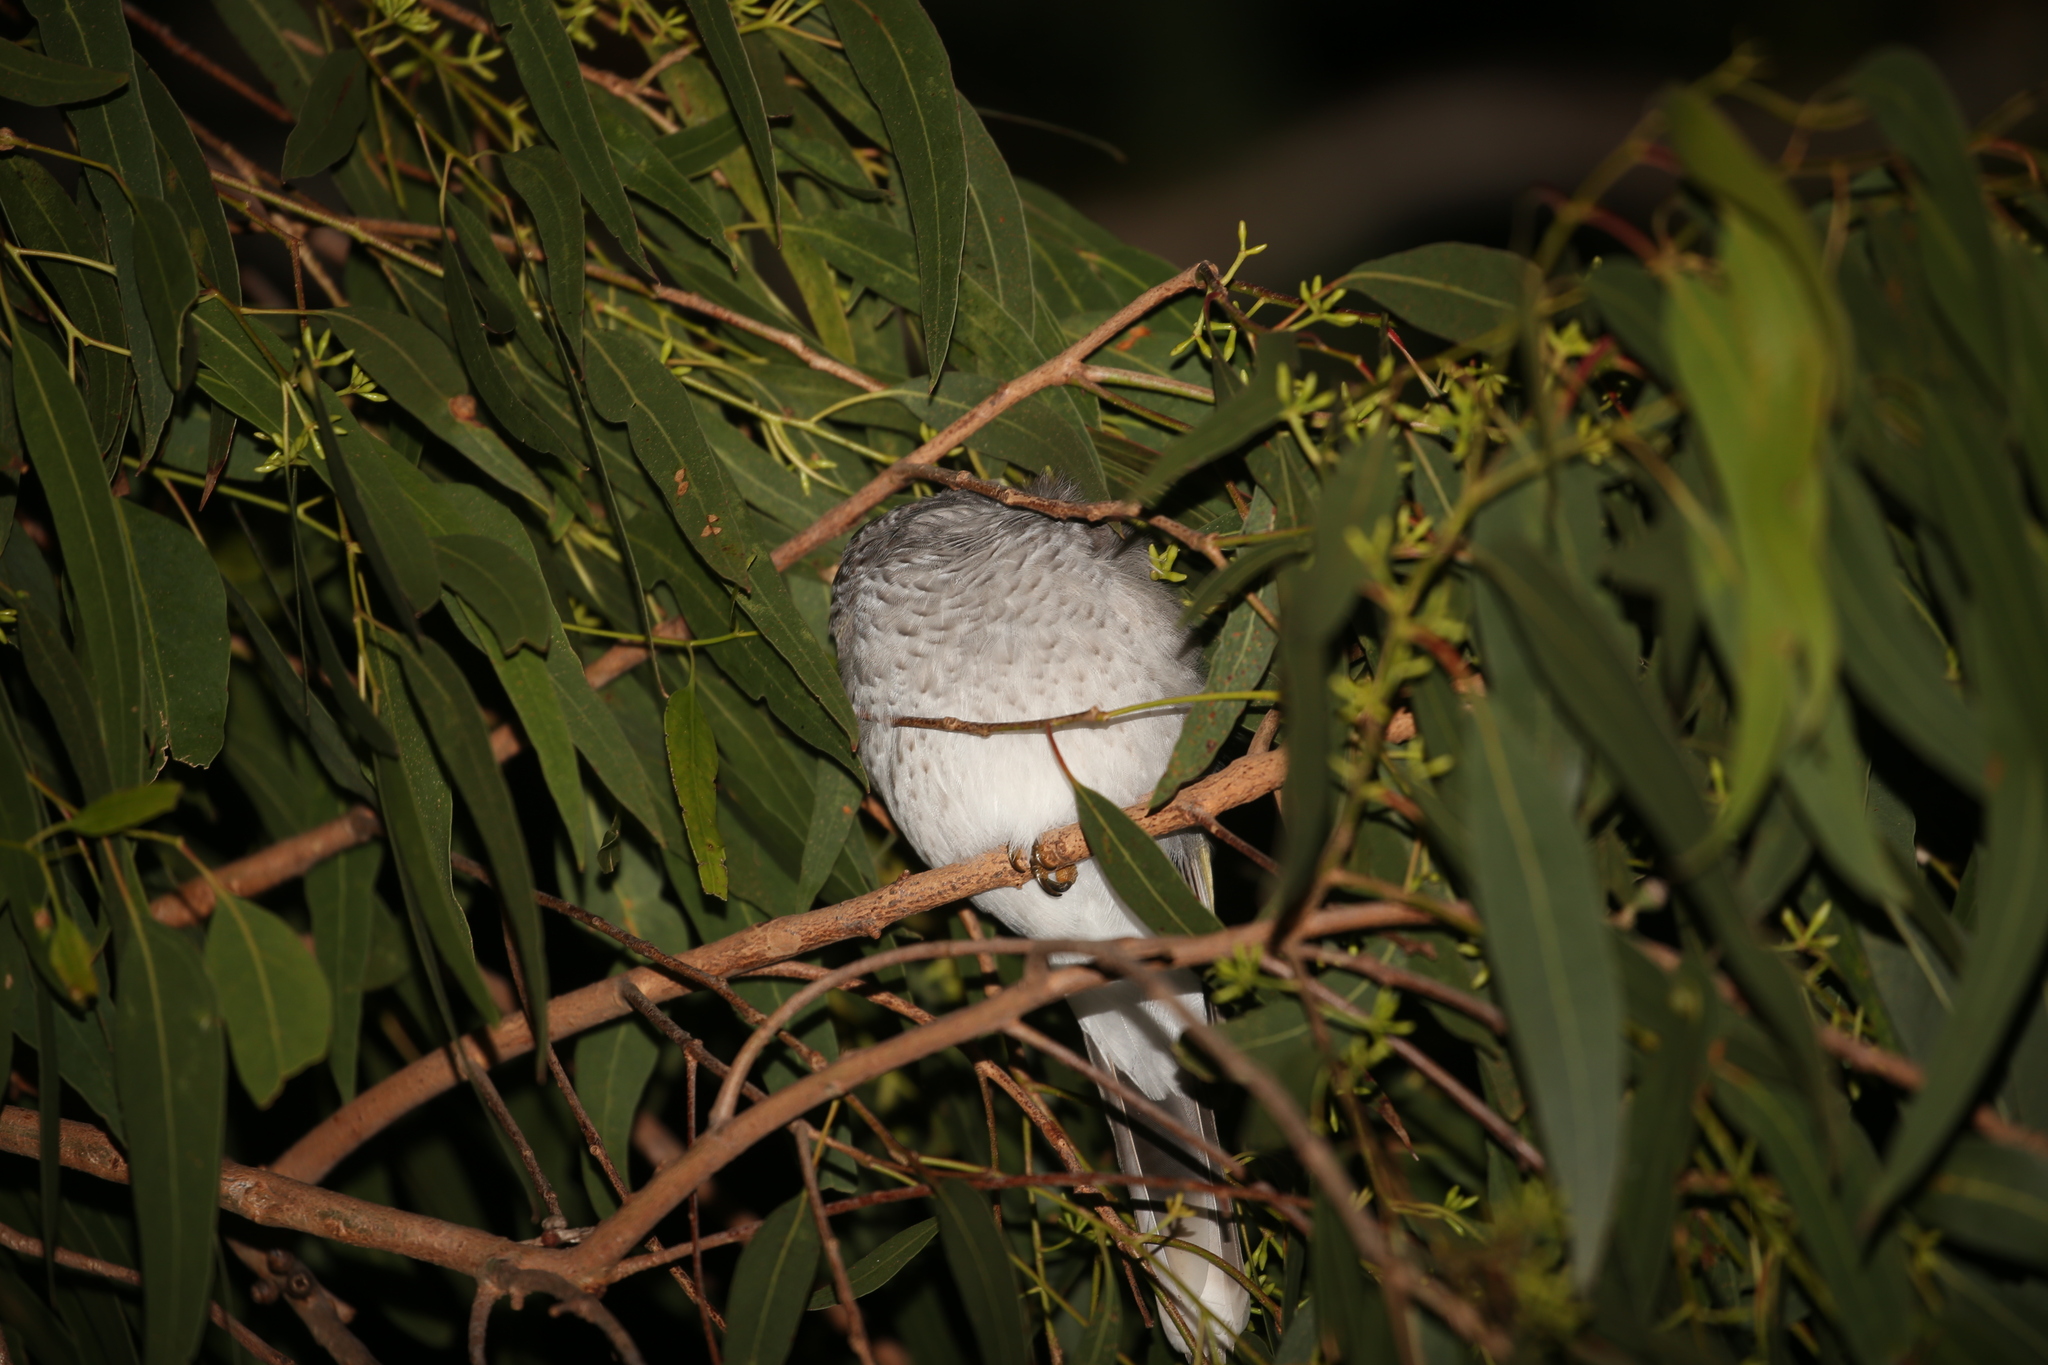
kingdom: Animalia
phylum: Chordata
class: Aves
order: Passeriformes
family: Meliphagidae
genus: Manorina
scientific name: Manorina melanocephala
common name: Noisy miner
